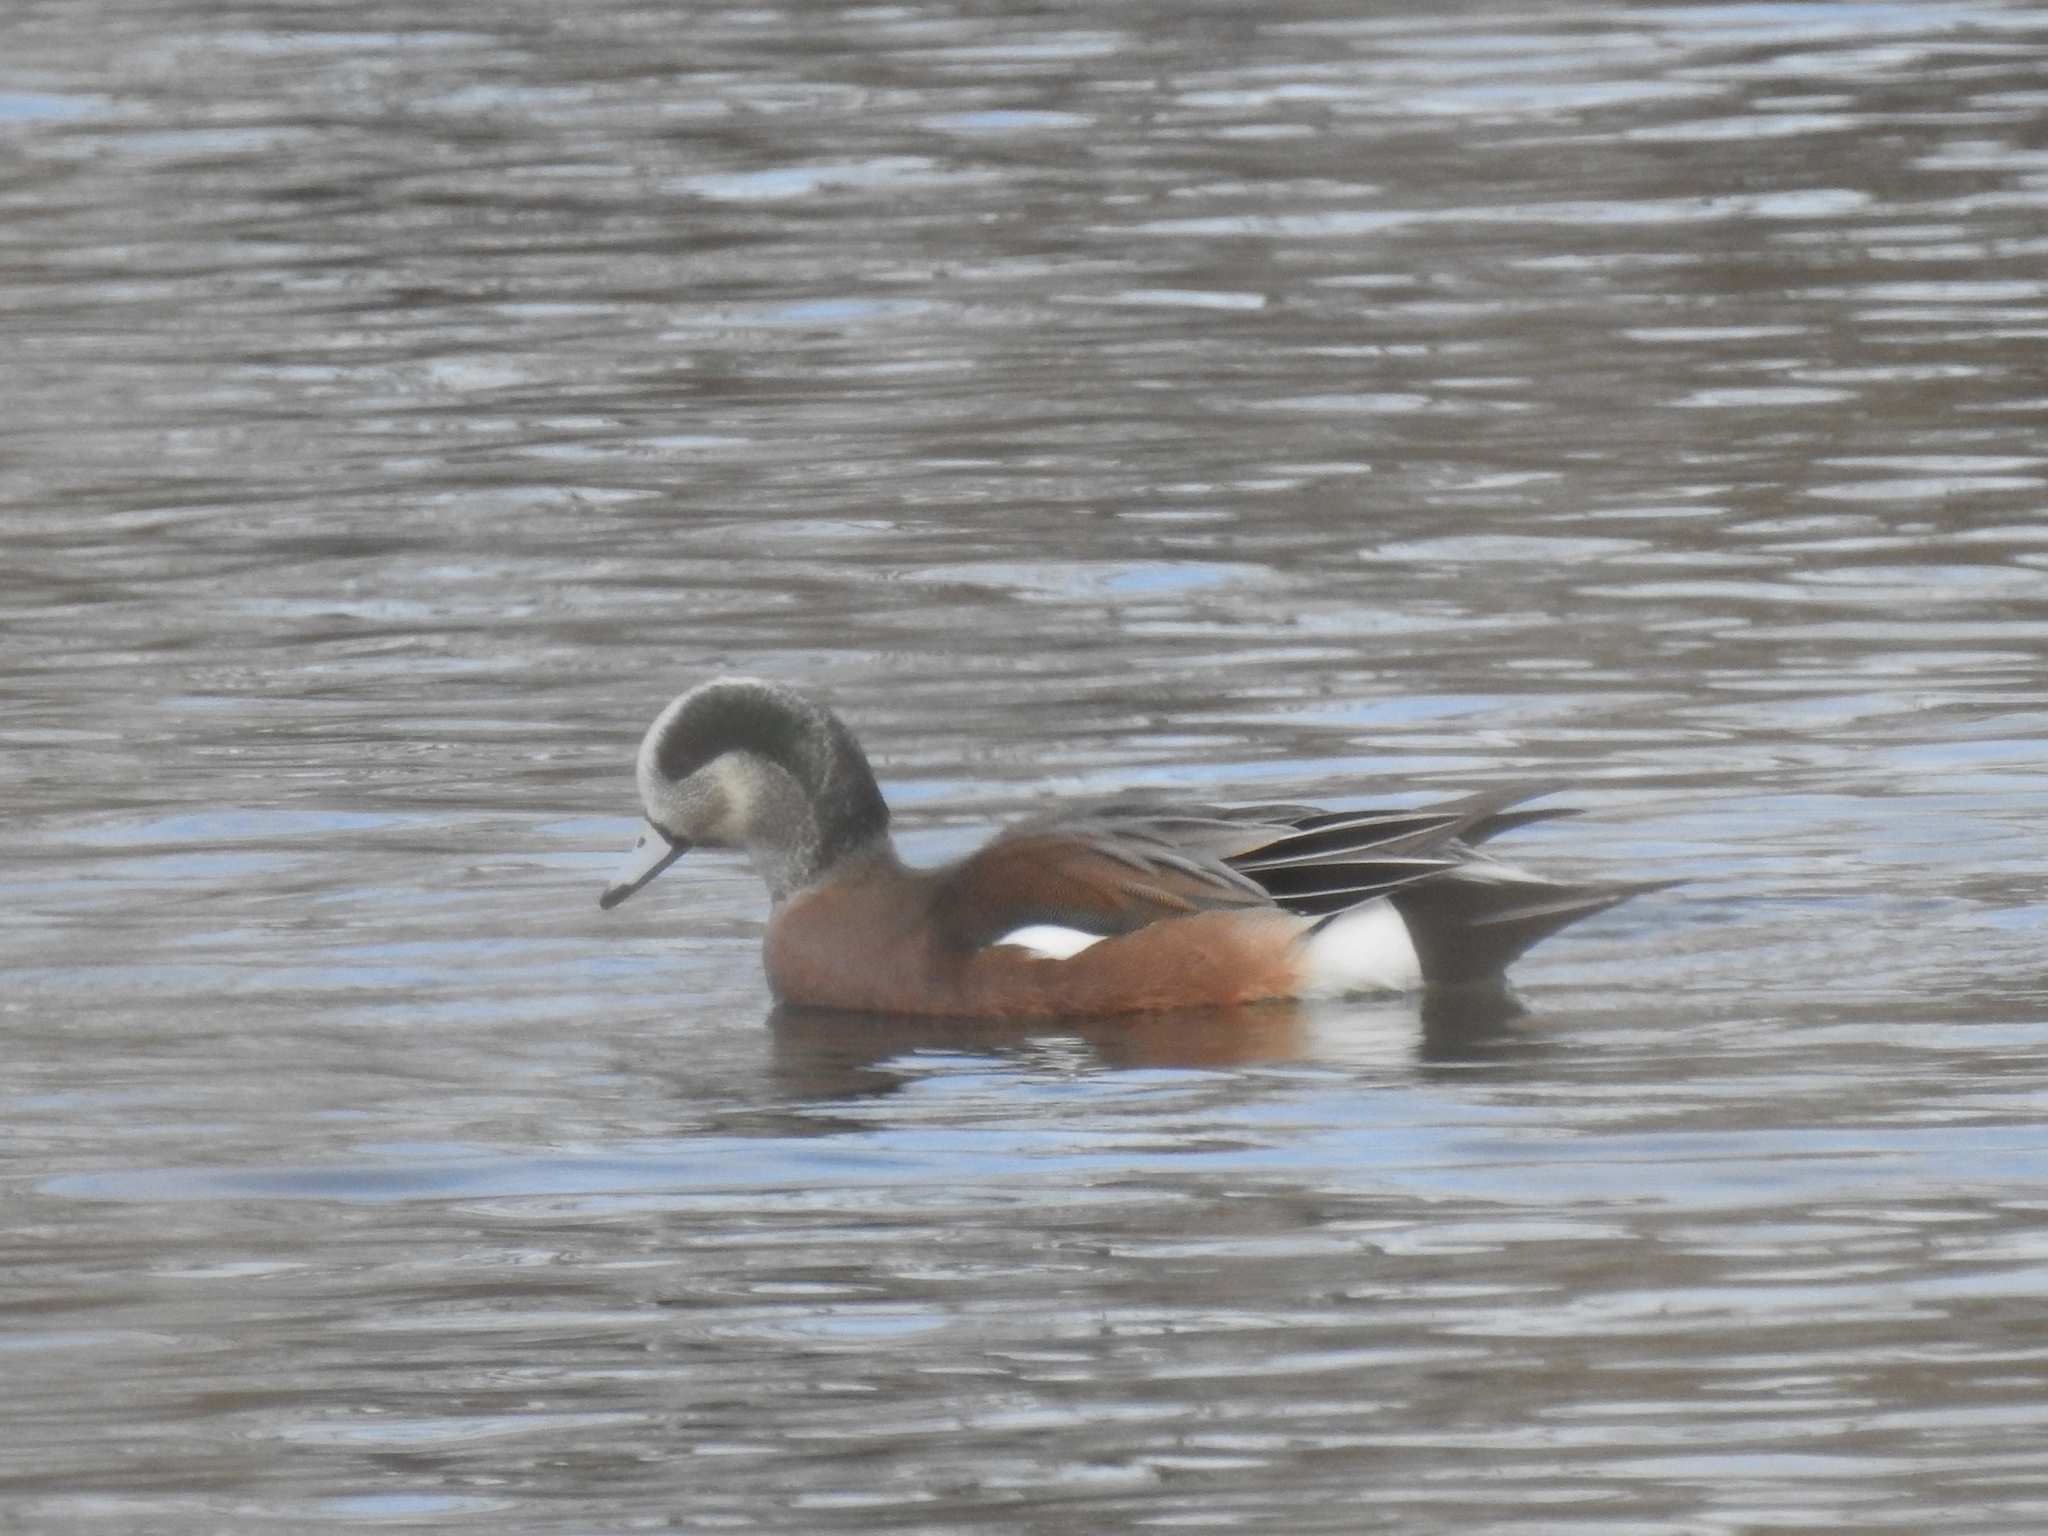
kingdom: Animalia
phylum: Chordata
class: Aves
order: Anseriformes
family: Anatidae
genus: Mareca
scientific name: Mareca americana
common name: American wigeon
